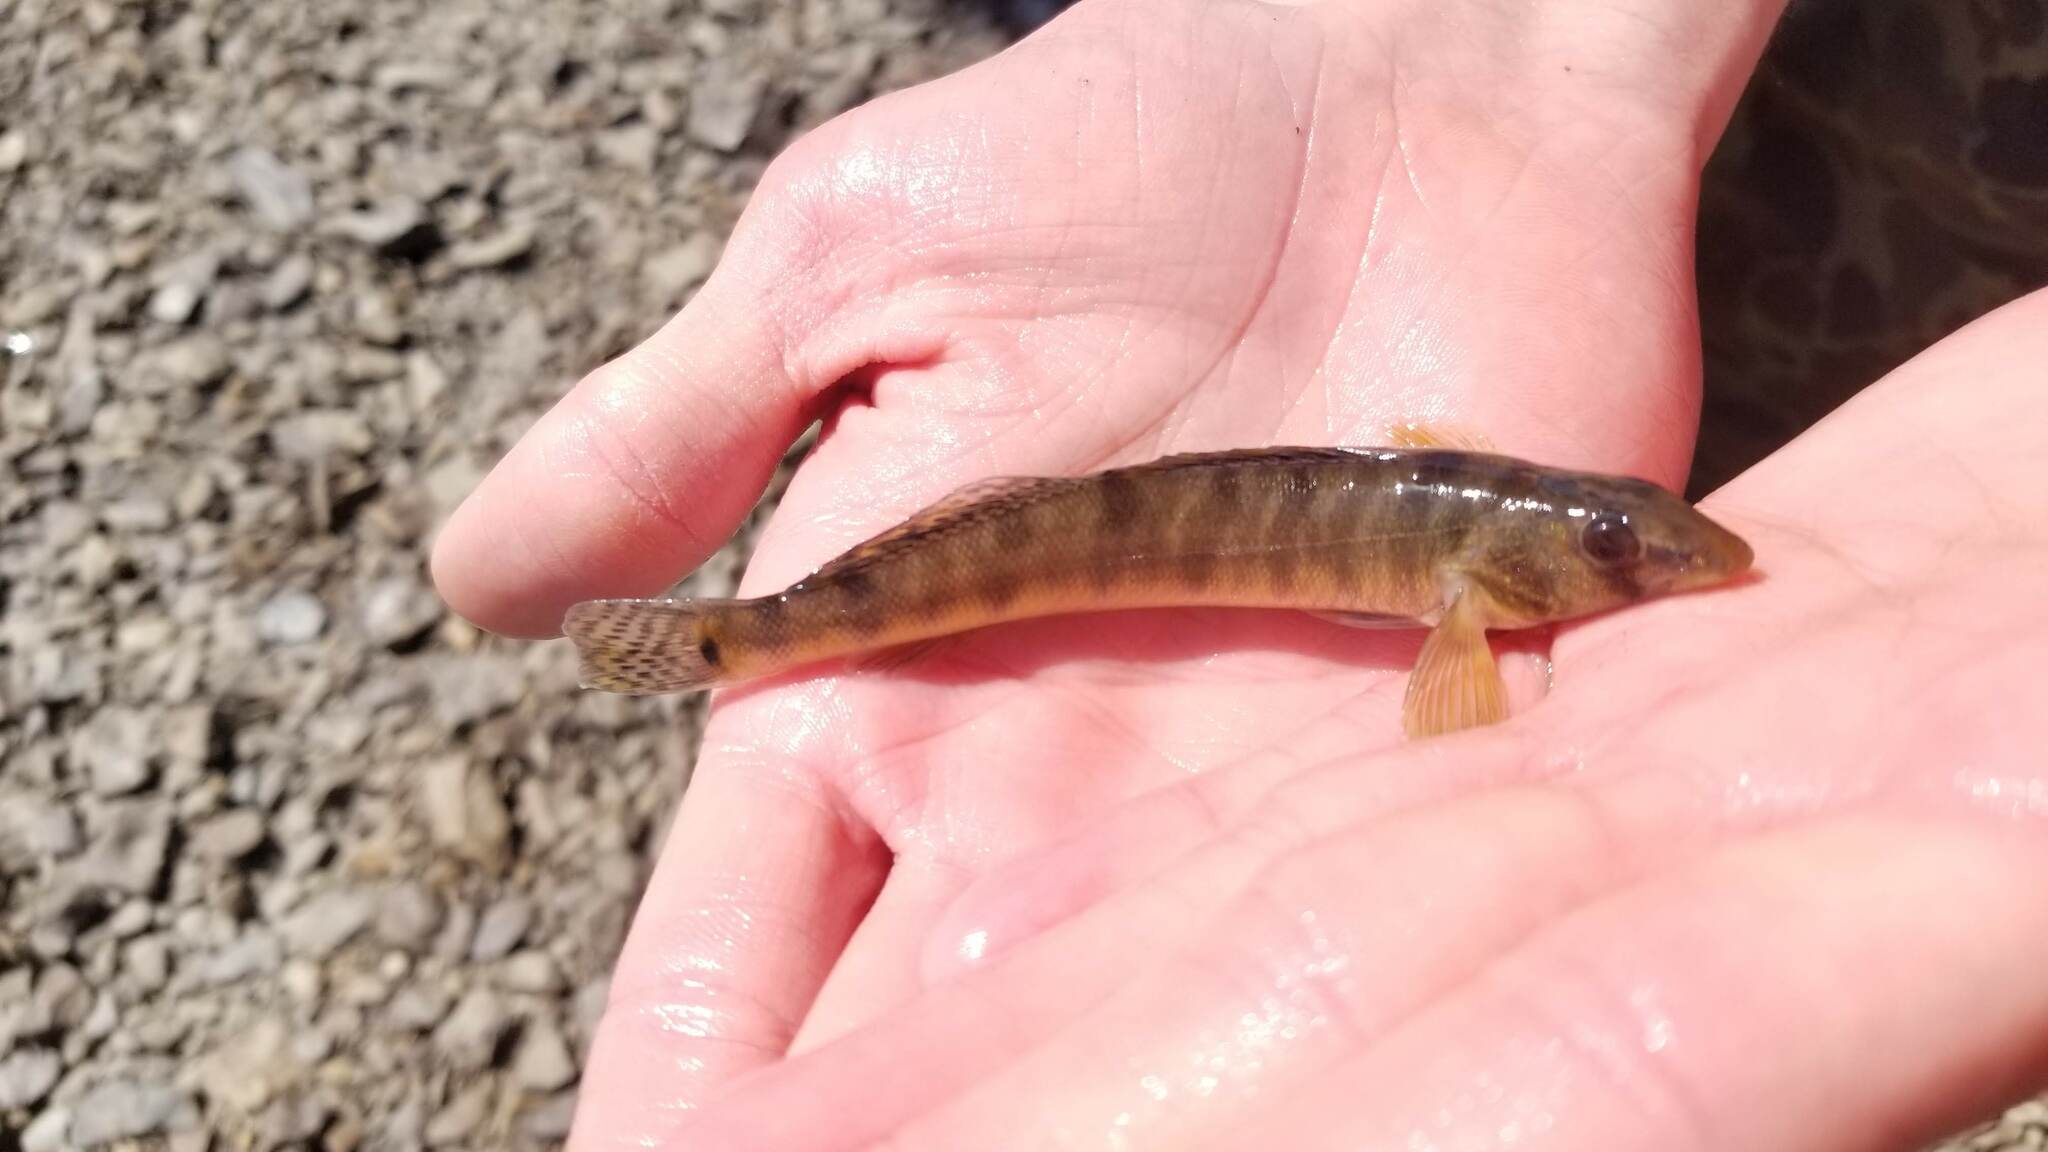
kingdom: Animalia
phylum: Chordata
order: Perciformes
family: Percidae
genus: Percina
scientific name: Percina fulvitaenia
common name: Ozark logperch
